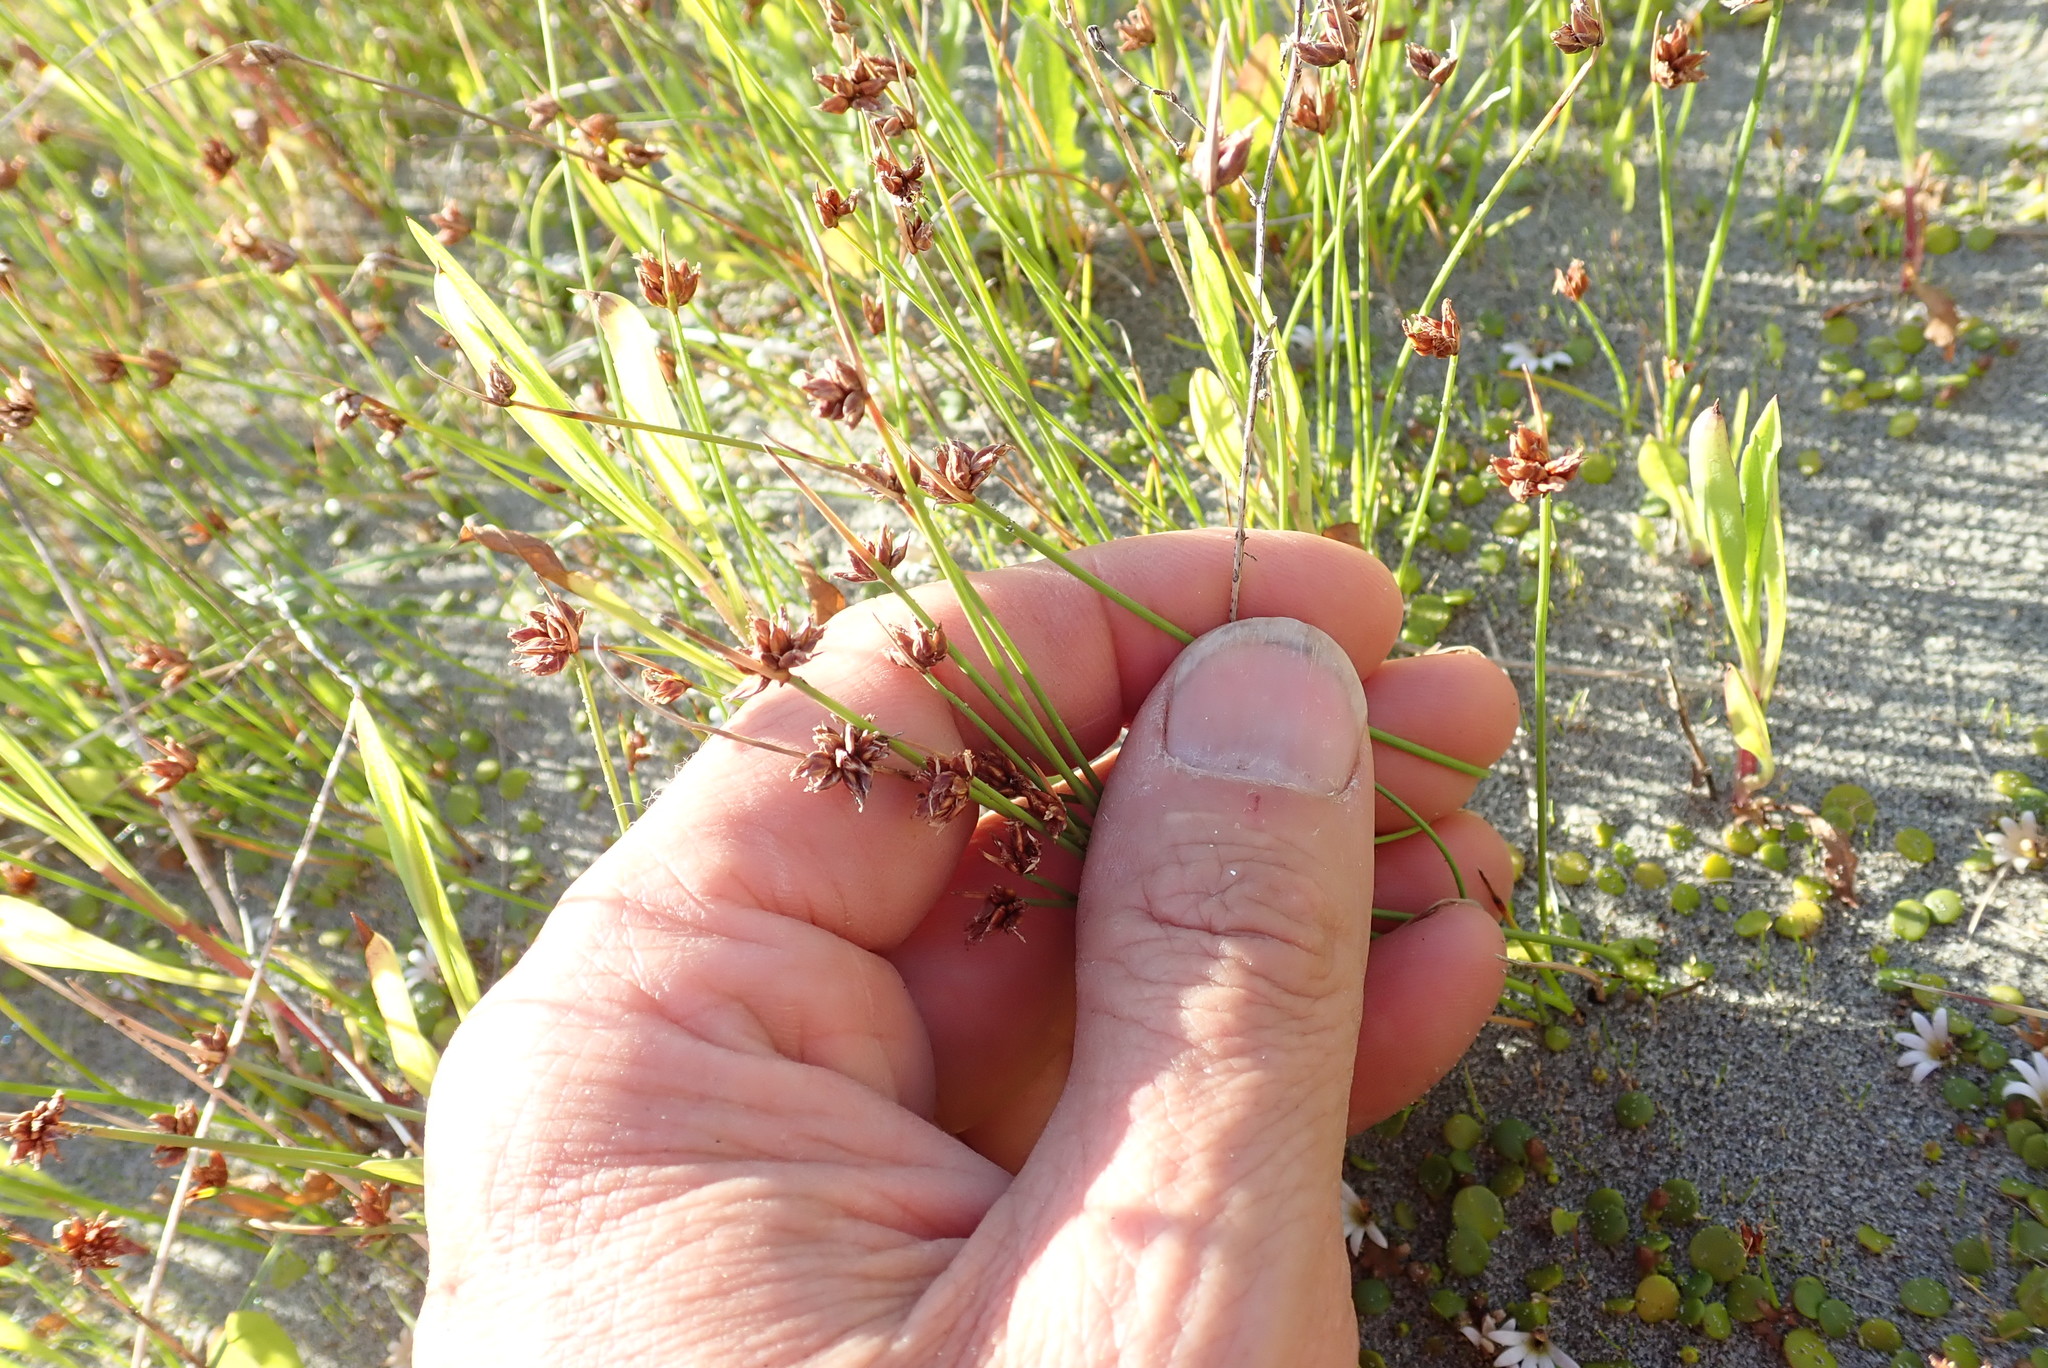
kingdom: Plantae
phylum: Tracheophyta
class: Liliopsida
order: Poales
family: Cyperaceae
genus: Schoenus
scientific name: Schoenus nitens
